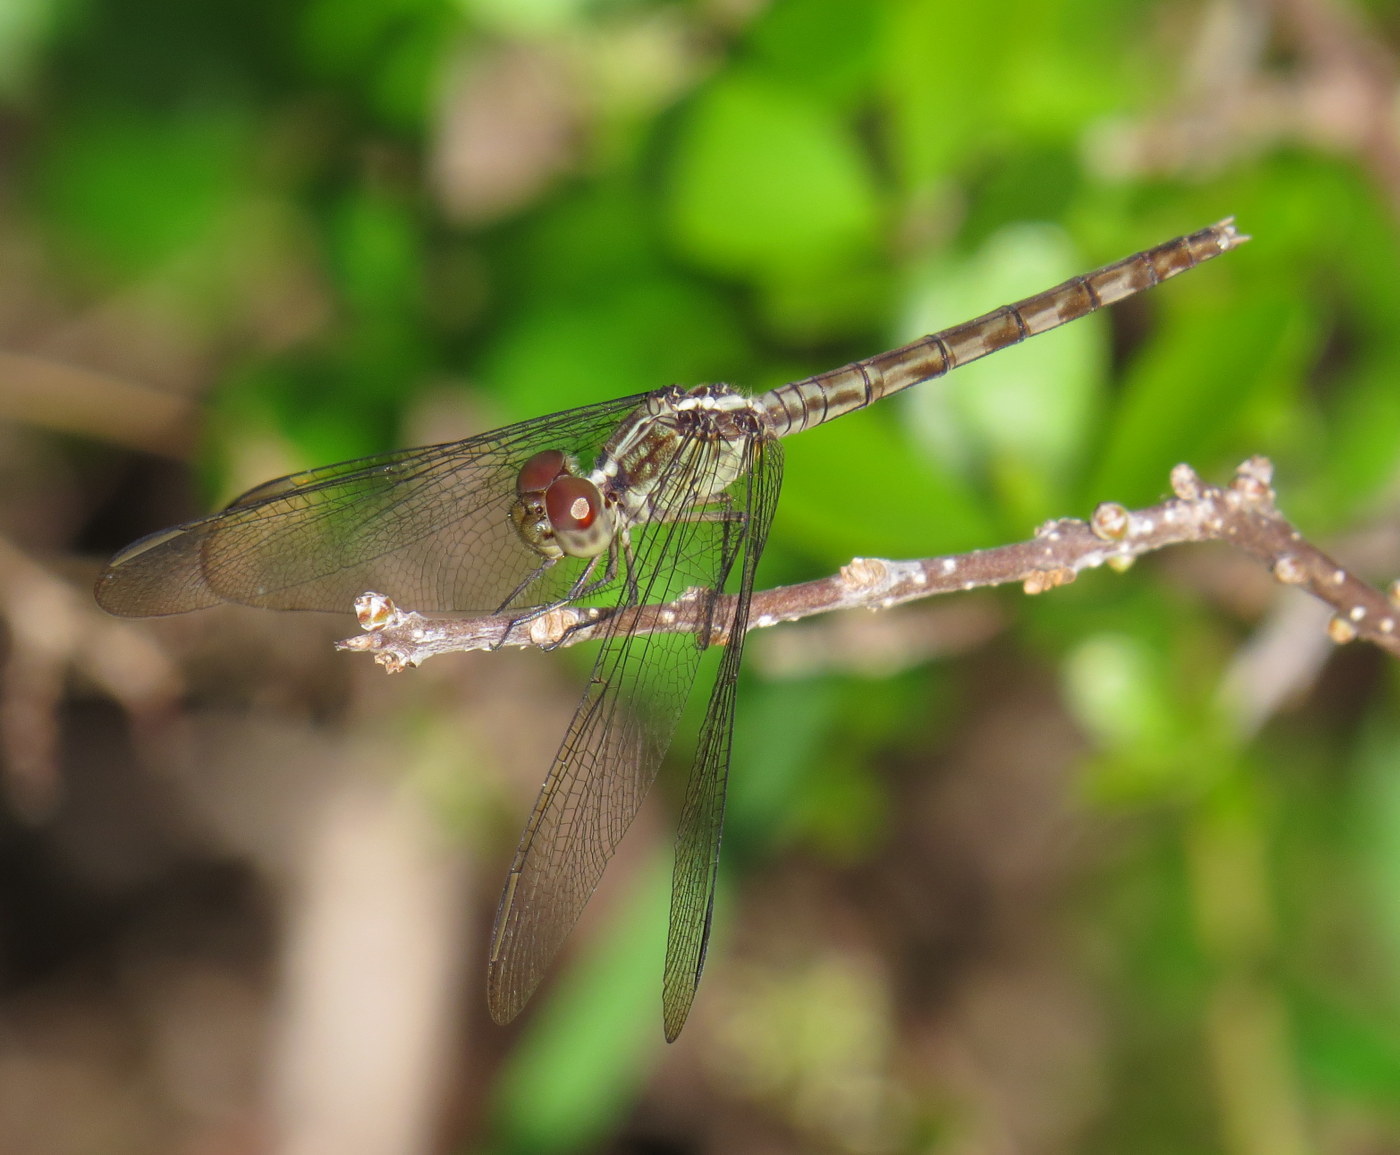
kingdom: Animalia
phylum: Arthropoda
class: Insecta
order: Odonata
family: Libellulidae
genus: Erythrodiplax
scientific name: Erythrodiplax umbrata
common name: Band-winged dragonlet
